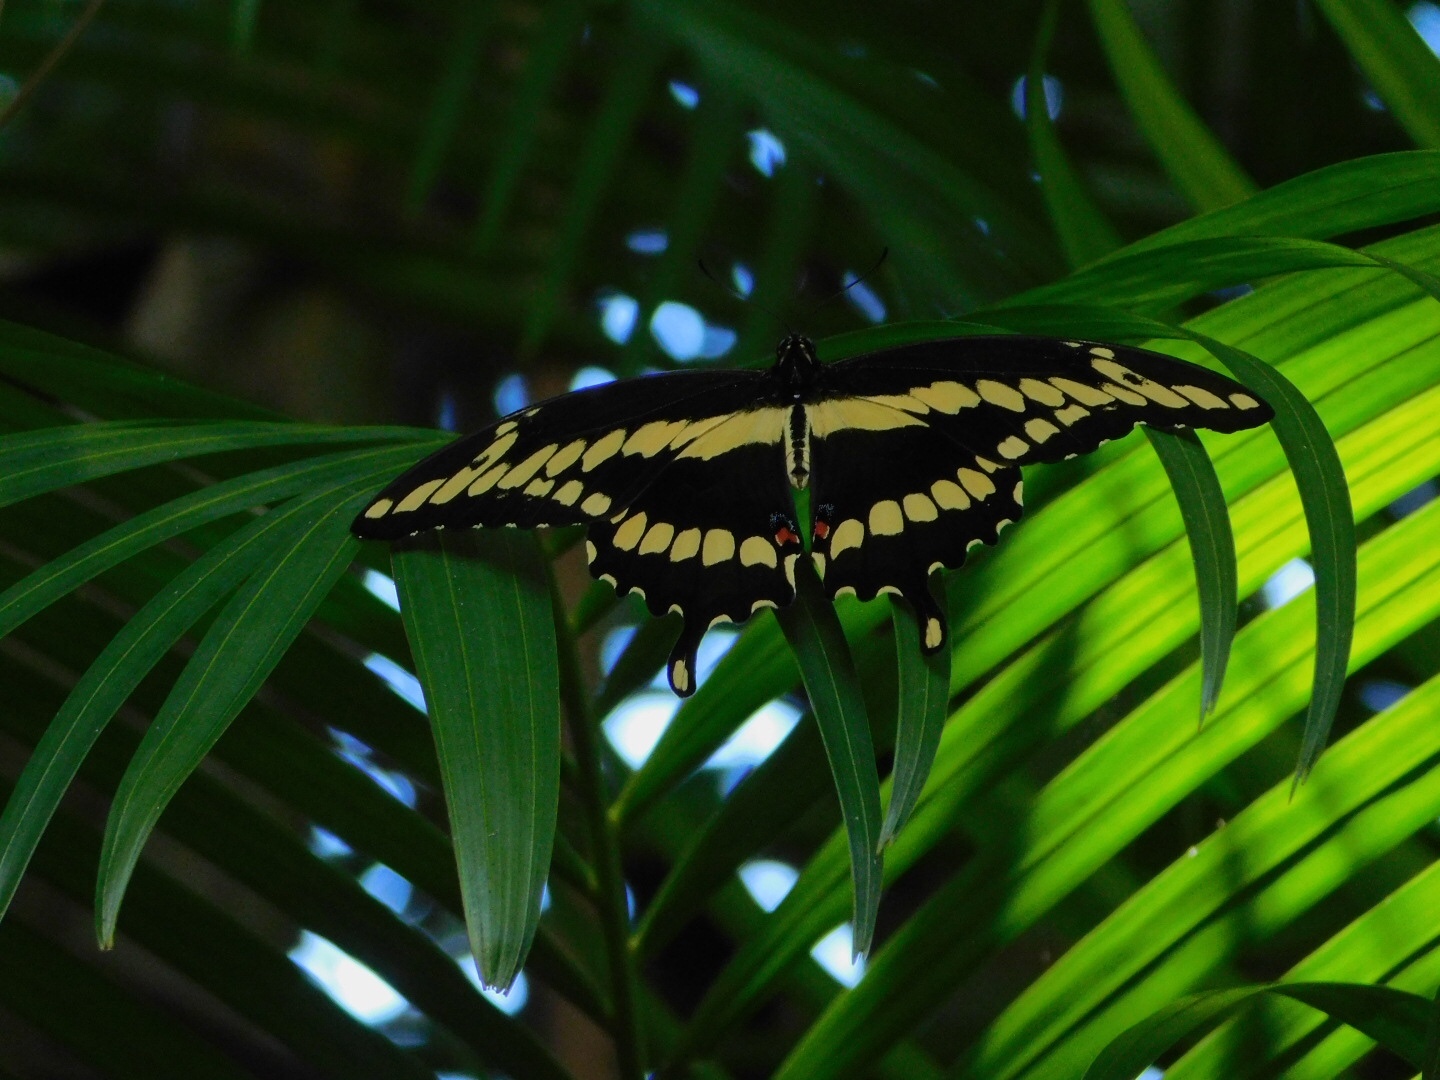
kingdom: Animalia
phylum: Arthropoda
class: Insecta
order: Lepidoptera
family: Papilionidae
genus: Papilio
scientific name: Papilio cresphontes
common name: Giant swallowtail
